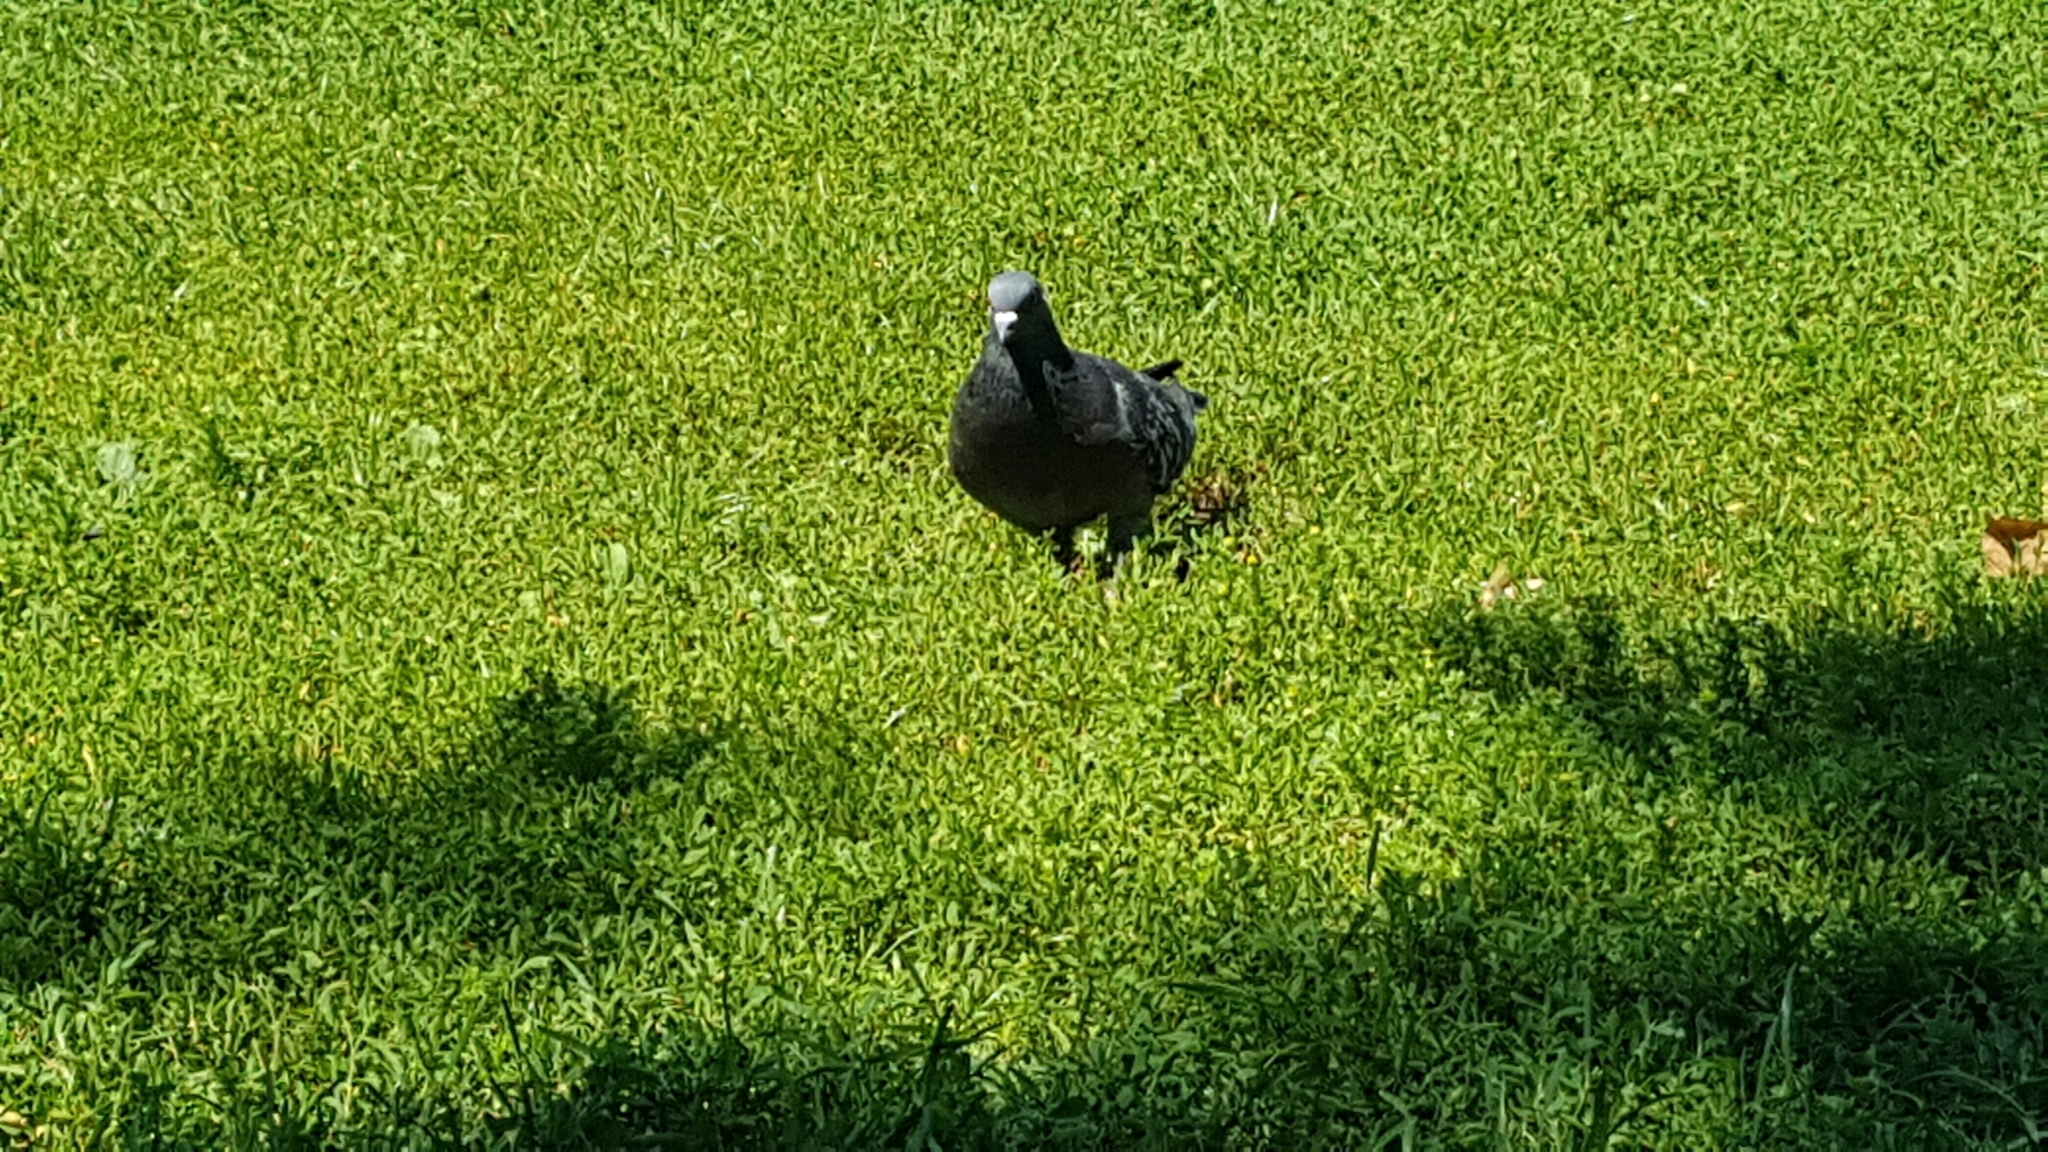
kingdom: Animalia
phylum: Chordata
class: Aves
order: Columbiformes
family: Columbidae
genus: Columba
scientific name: Columba livia
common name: Rock pigeon
